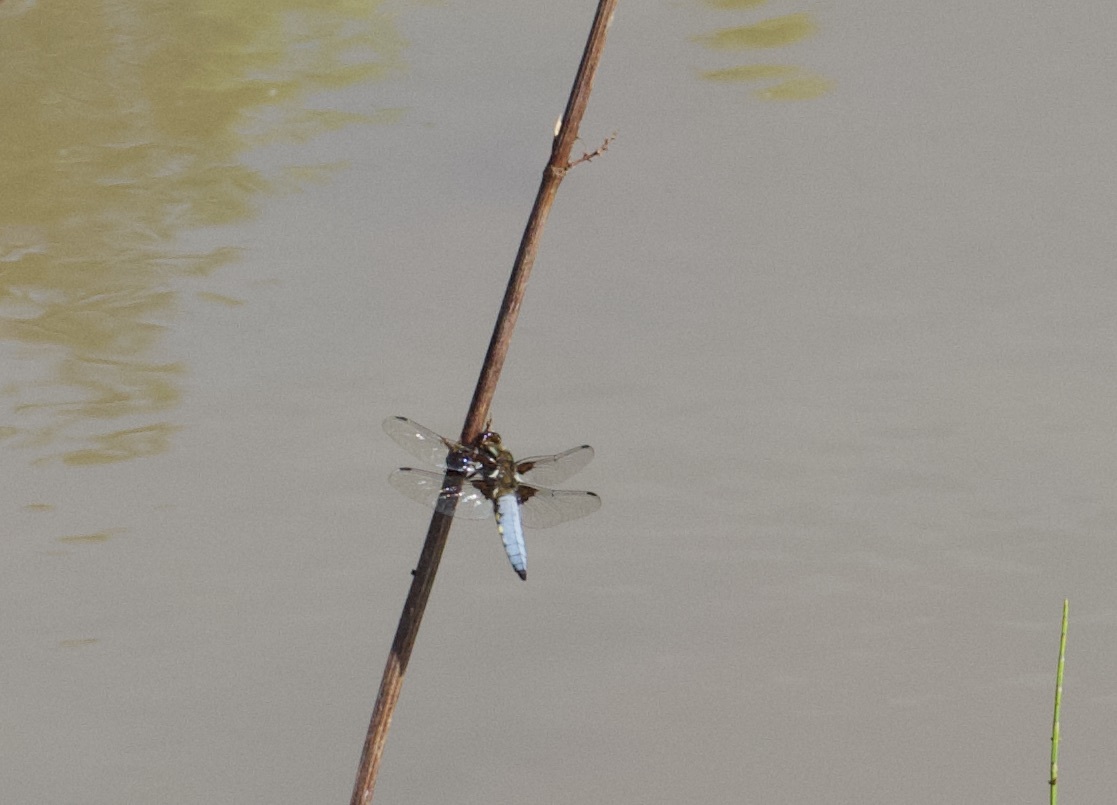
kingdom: Animalia
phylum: Arthropoda
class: Insecta
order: Odonata
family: Libellulidae
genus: Libellula
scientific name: Libellula depressa
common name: Broad-bodied chaser
